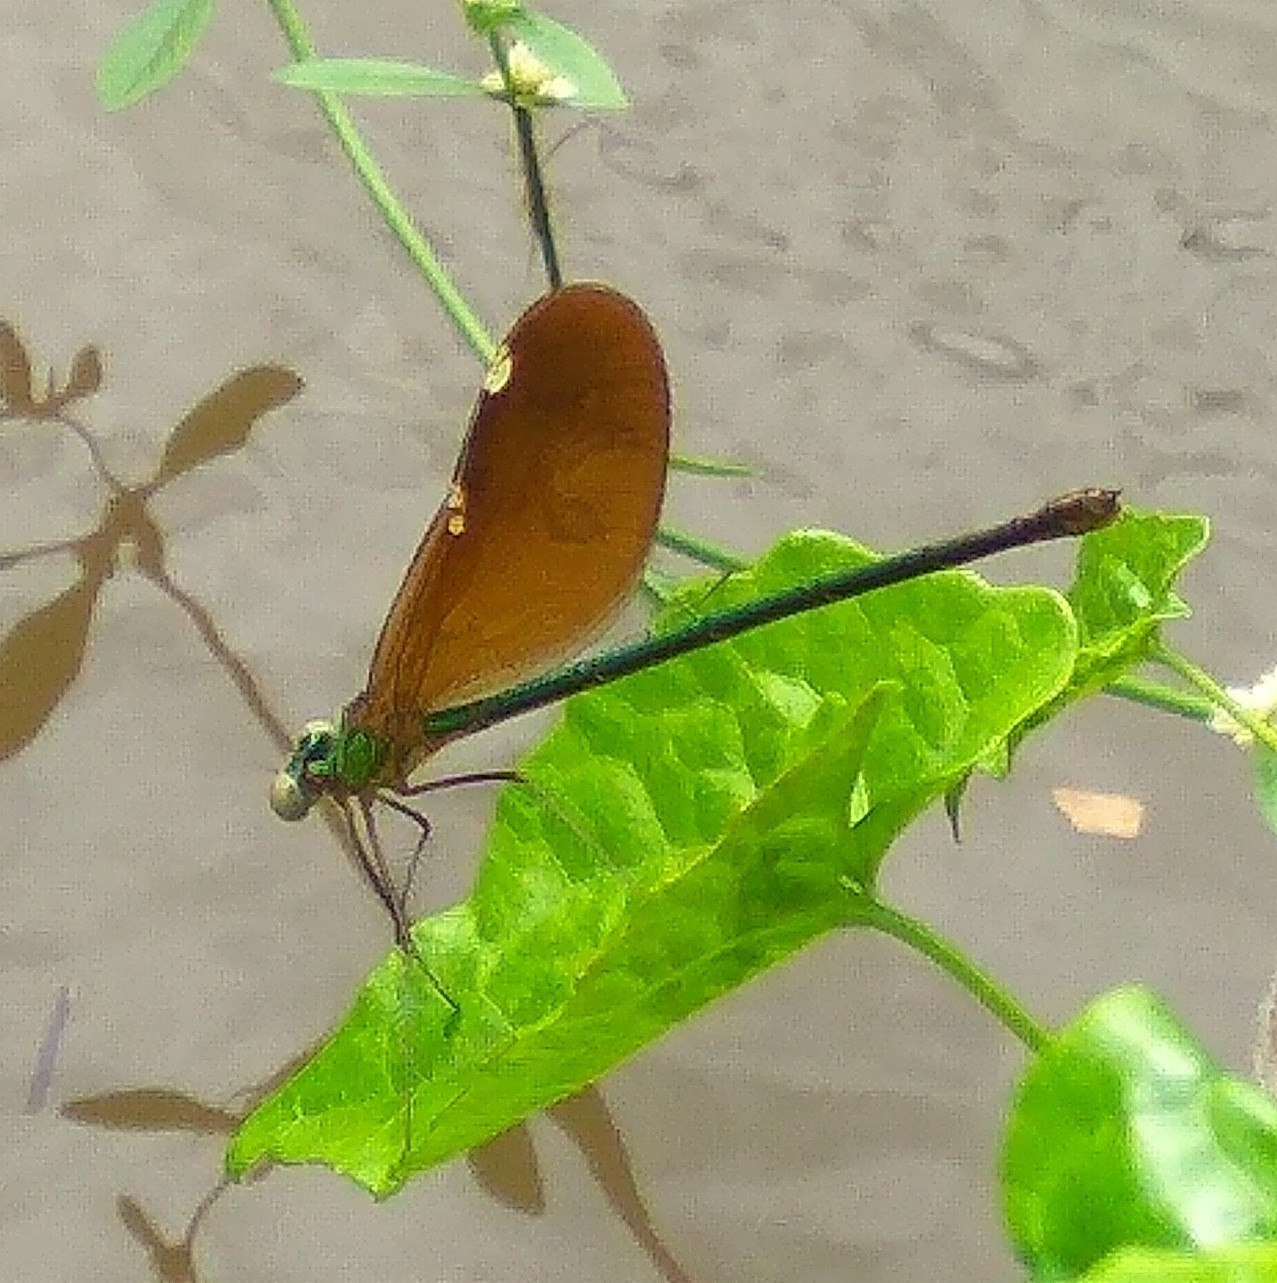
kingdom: Animalia
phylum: Arthropoda
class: Insecta
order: Odonata
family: Calopterygidae
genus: Neurobasis
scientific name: Neurobasis chinensis
